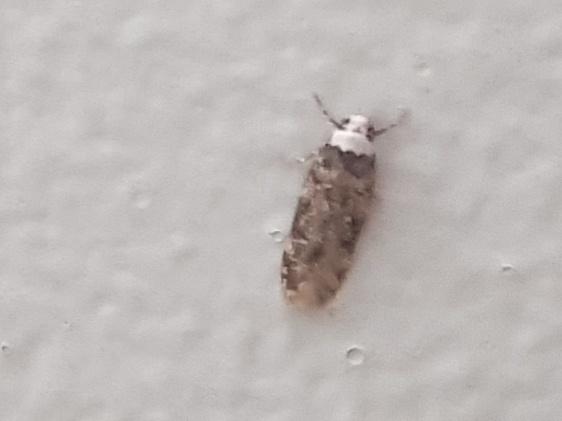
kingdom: Animalia
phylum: Arthropoda
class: Insecta
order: Lepidoptera
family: Oecophoridae
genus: Endrosis
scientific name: Endrosis sarcitrella
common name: White-shouldered house moth
